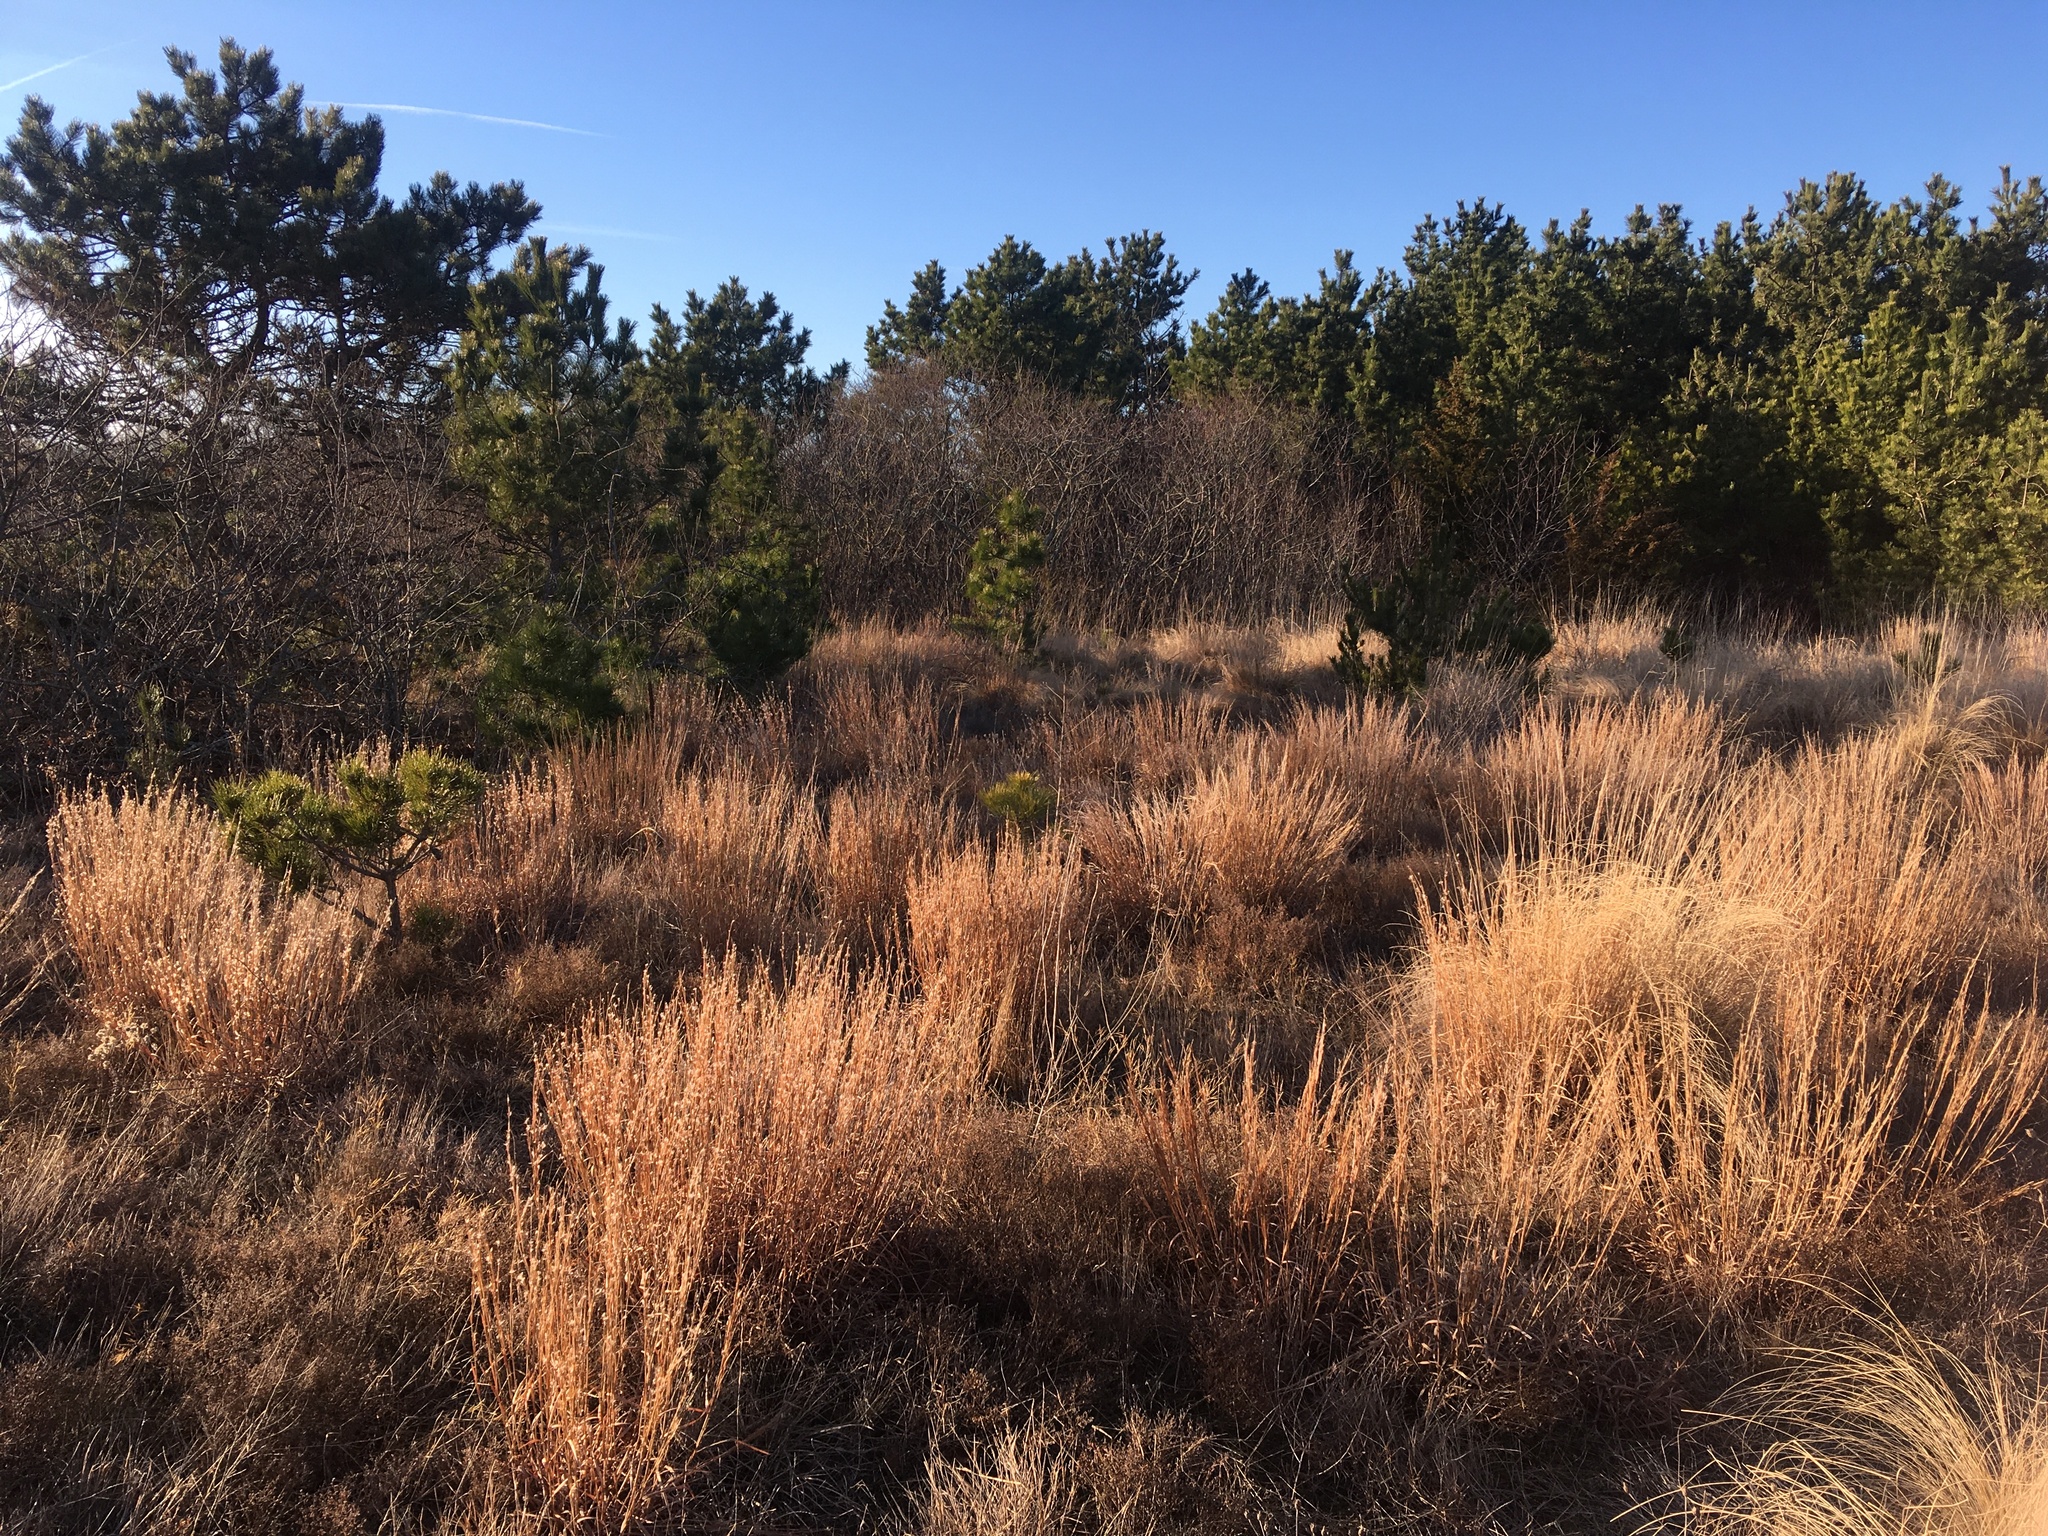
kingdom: Plantae
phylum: Tracheophyta
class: Liliopsida
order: Poales
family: Poaceae
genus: Schizachyrium
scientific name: Schizachyrium scoparium
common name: Little bluestem
